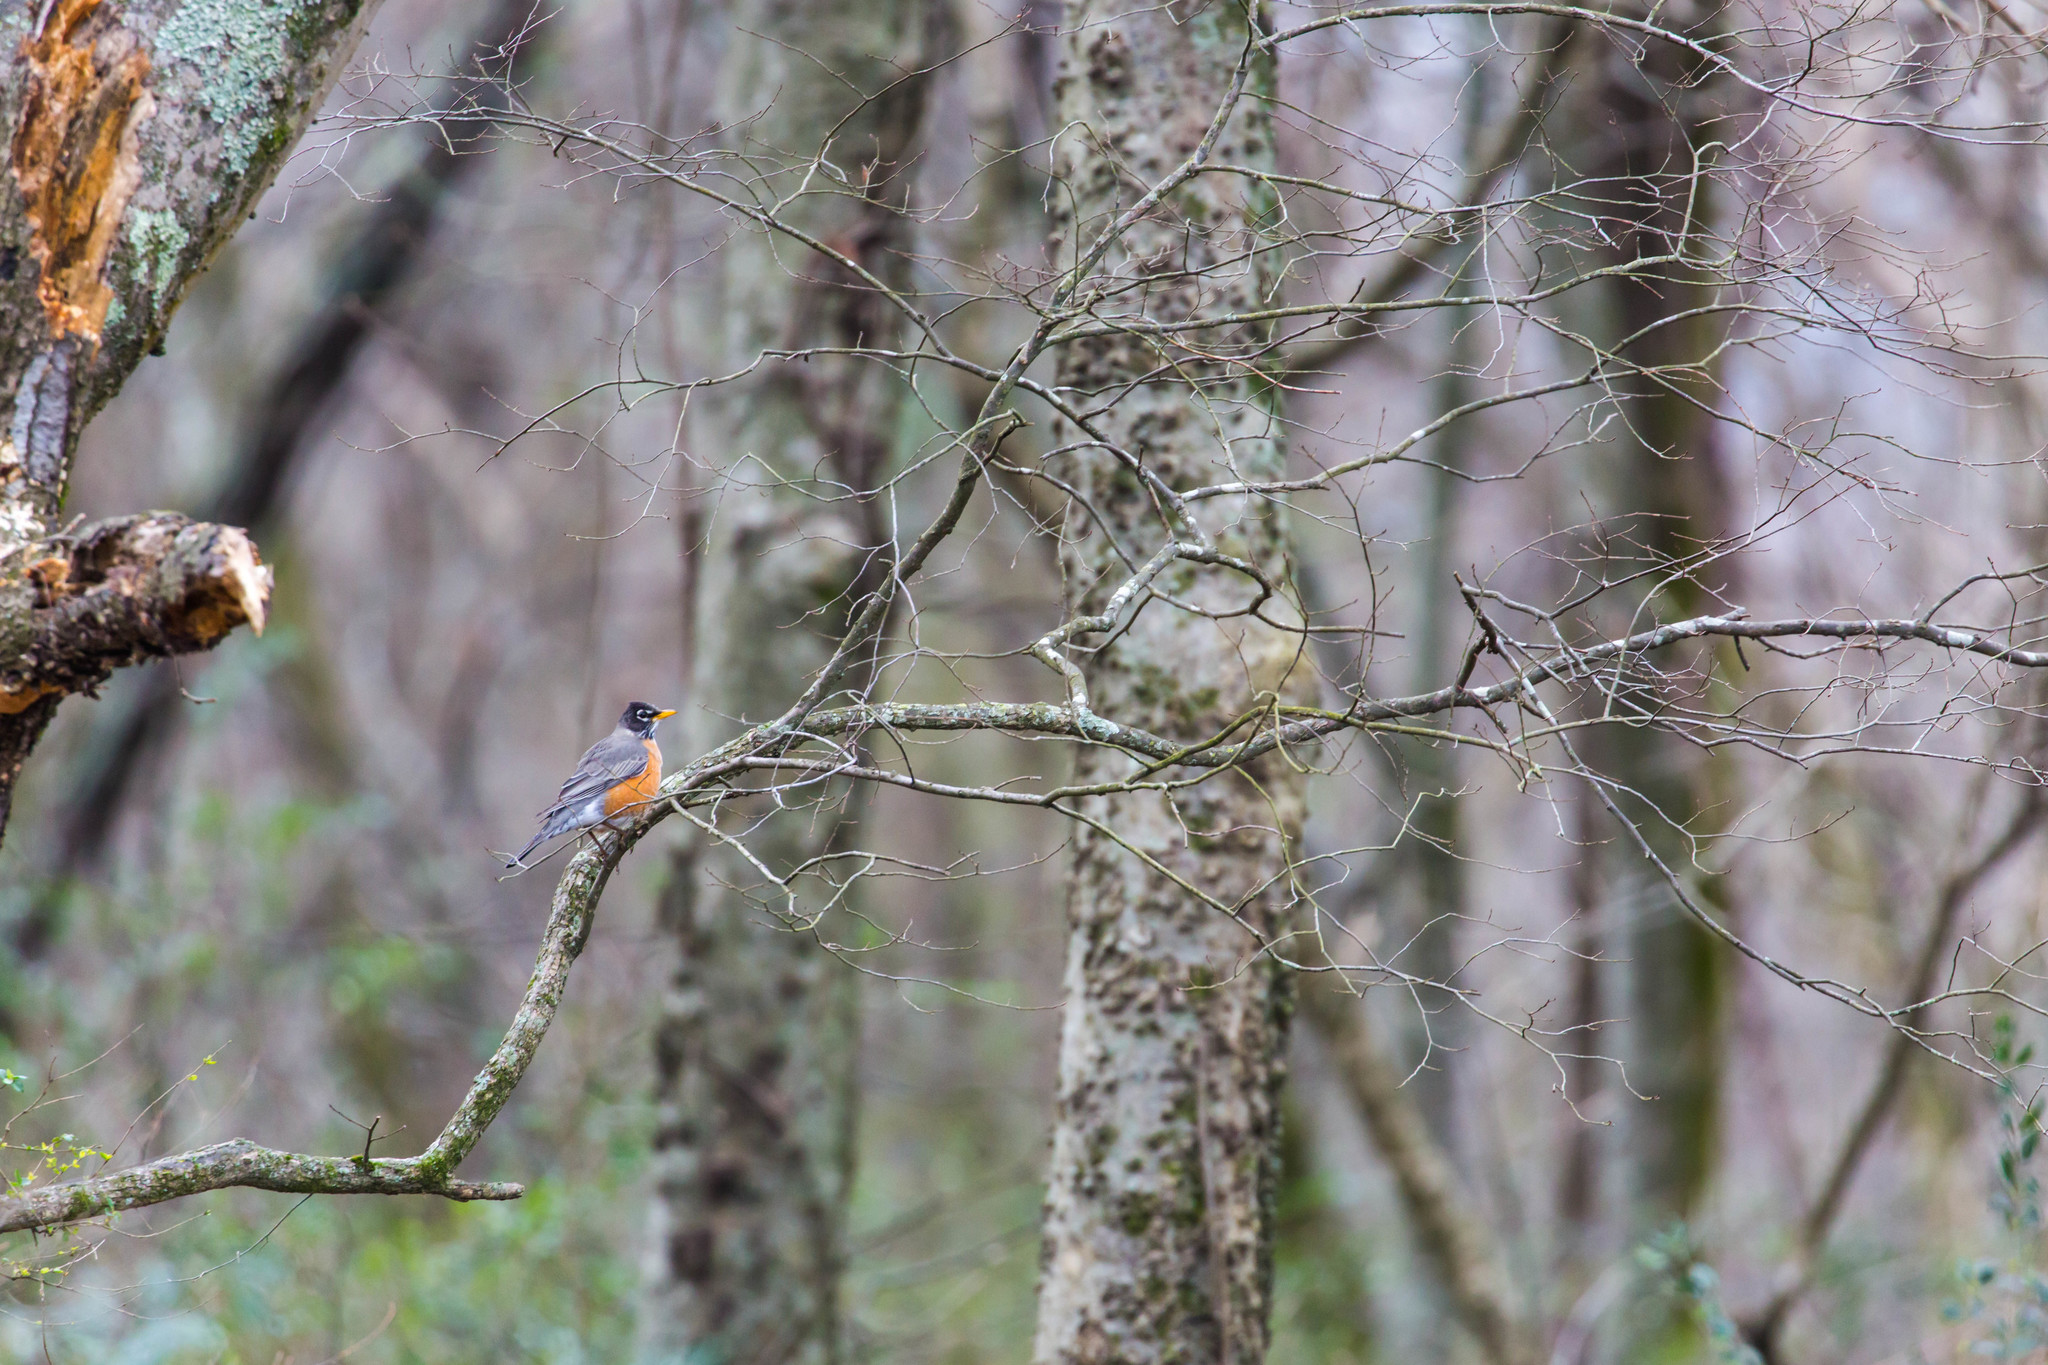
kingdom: Animalia
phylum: Chordata
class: Aves
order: Passeriformes
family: Turdidae
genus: Turdus
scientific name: Turdus migratorius
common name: American robin
